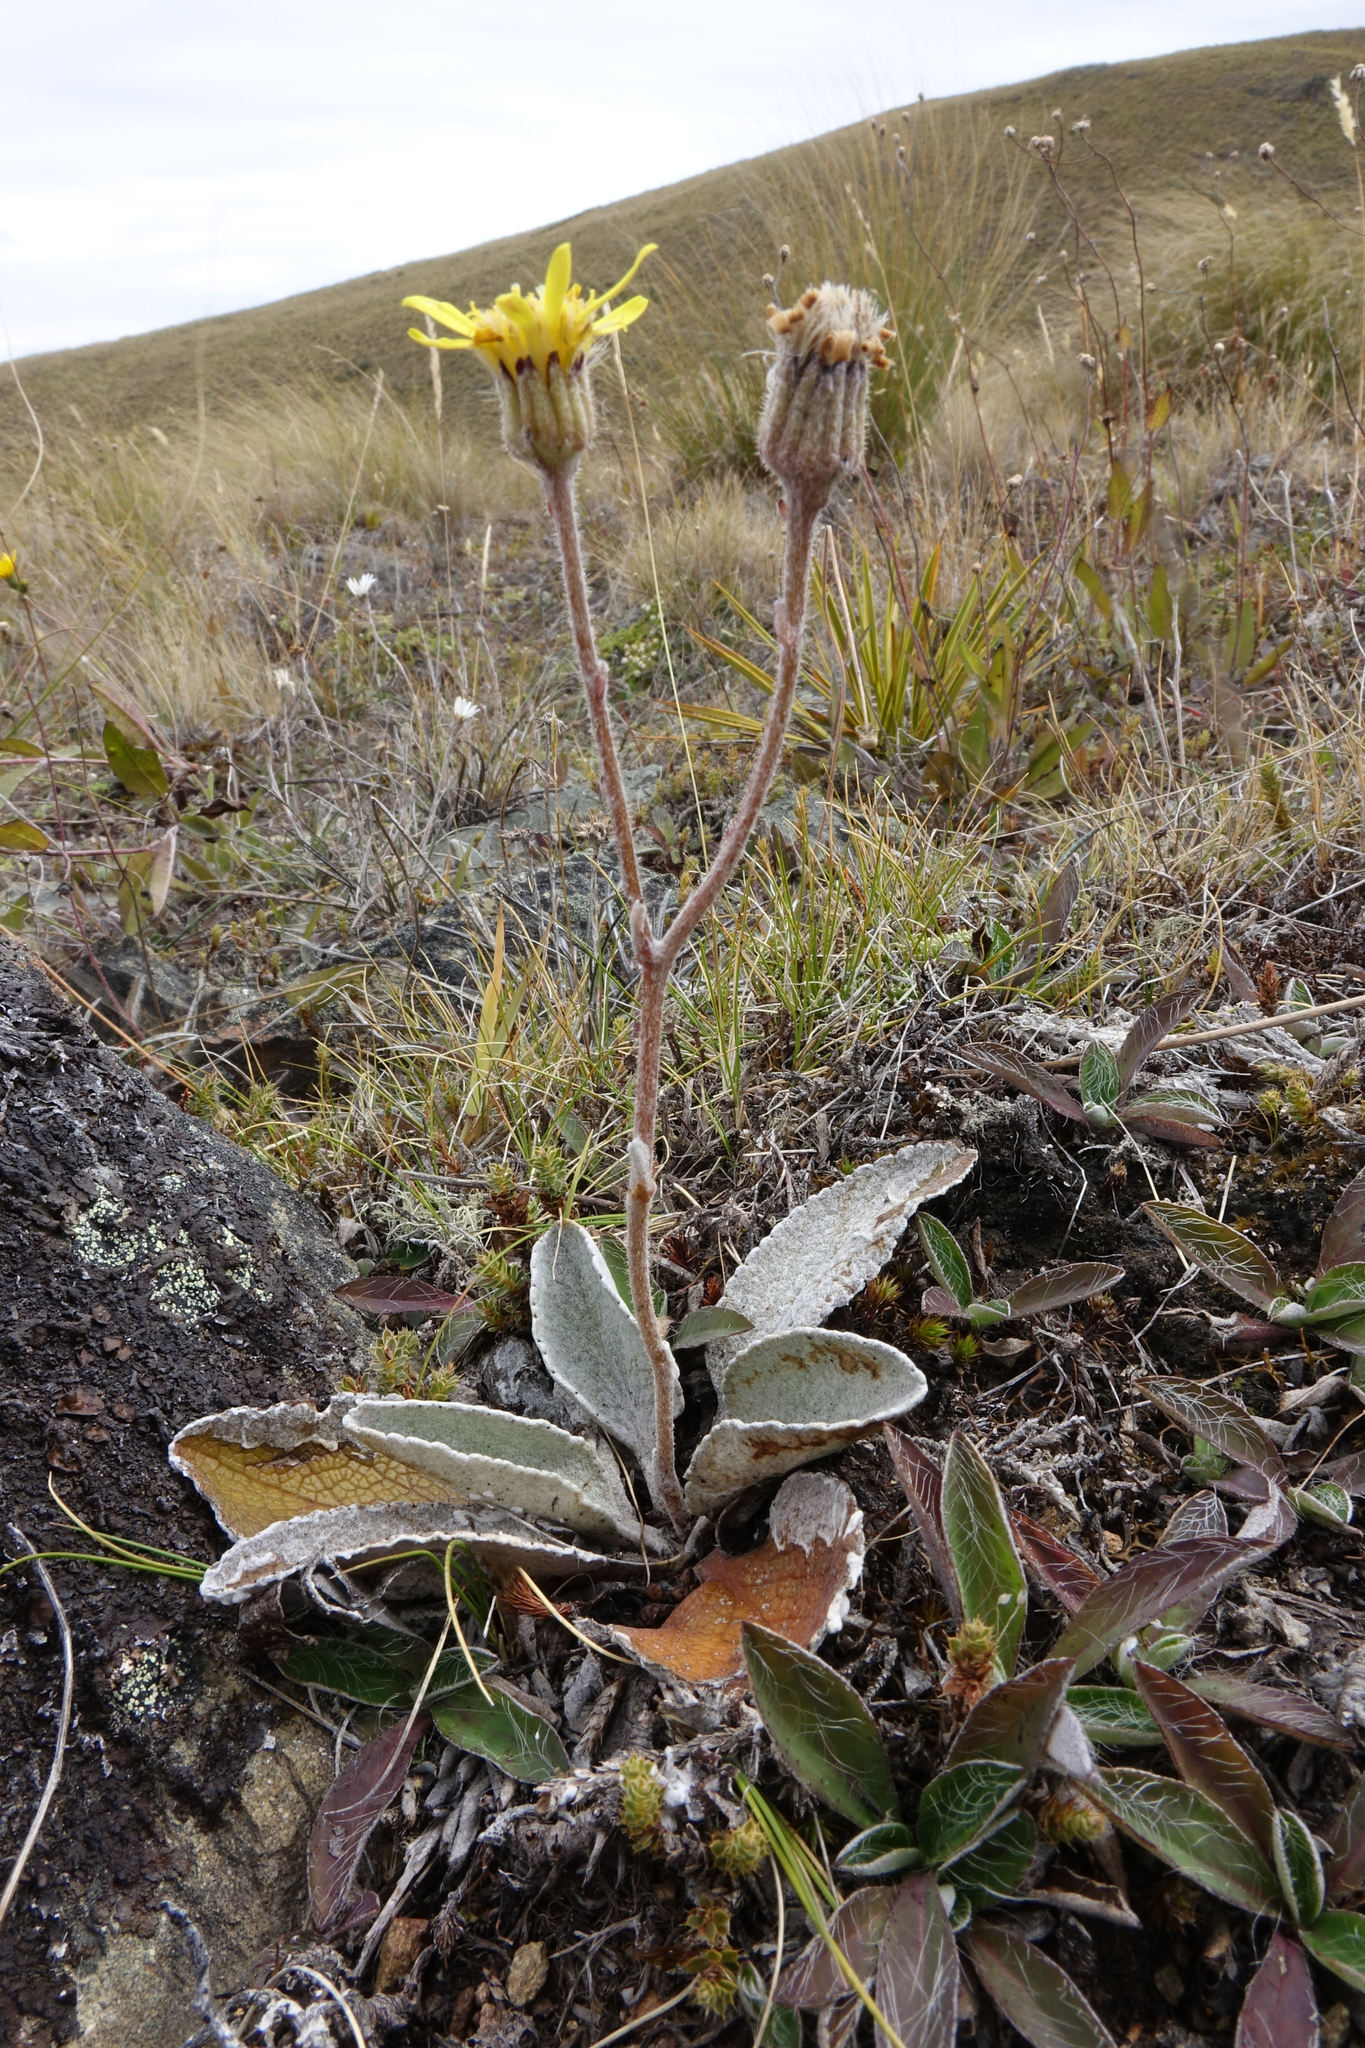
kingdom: Plantae
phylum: Tracheophyta
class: Magnoliopsida
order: Asterales
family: Asteraceae
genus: Brachyglottis
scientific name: Brachyglottis haastii
